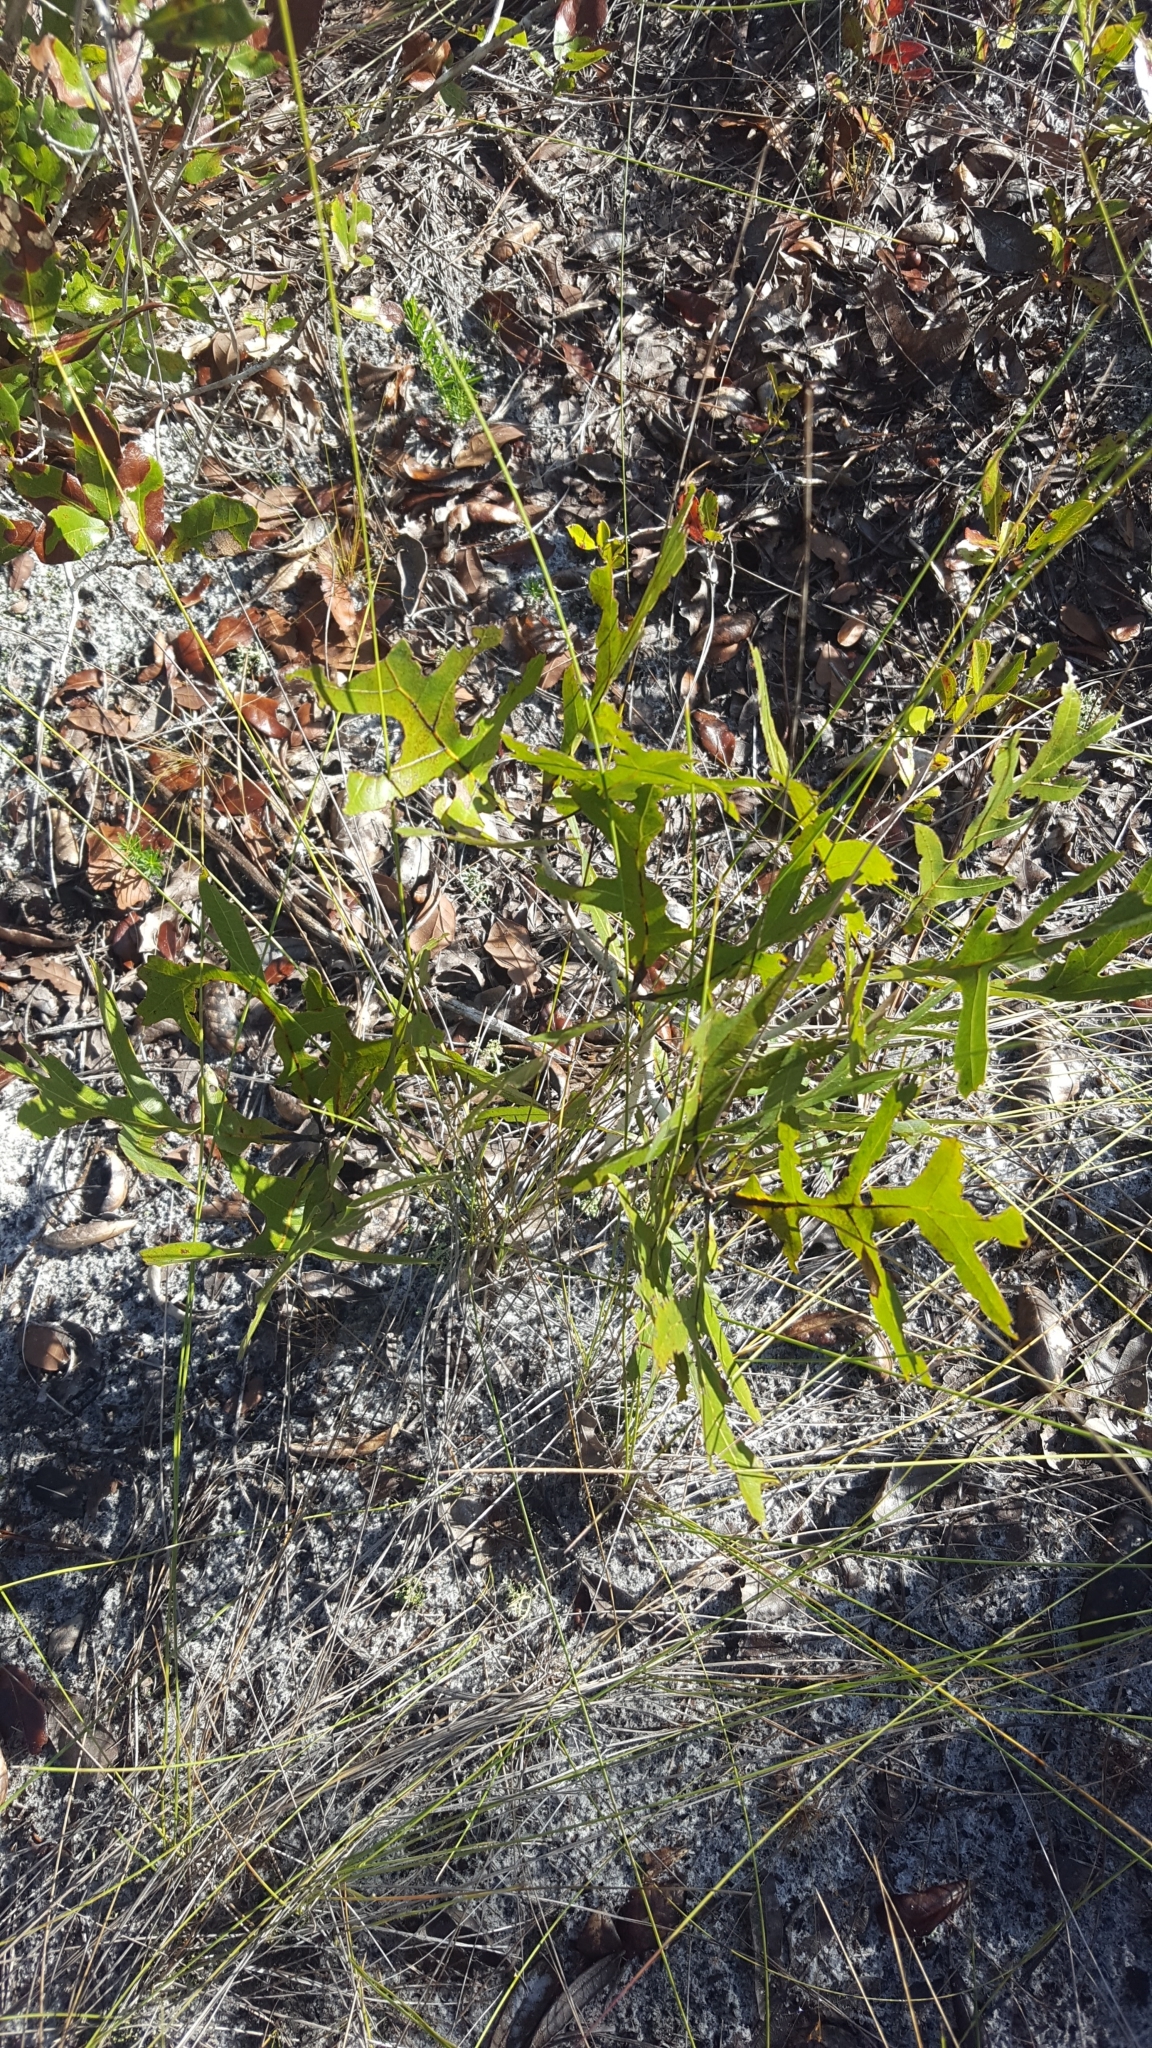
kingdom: Plantae
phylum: Tracheophyta
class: Magnoliopsida
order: Fagales
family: Fagaceae
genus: Quercus
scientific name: Quercus laevis
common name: Turkey oak
